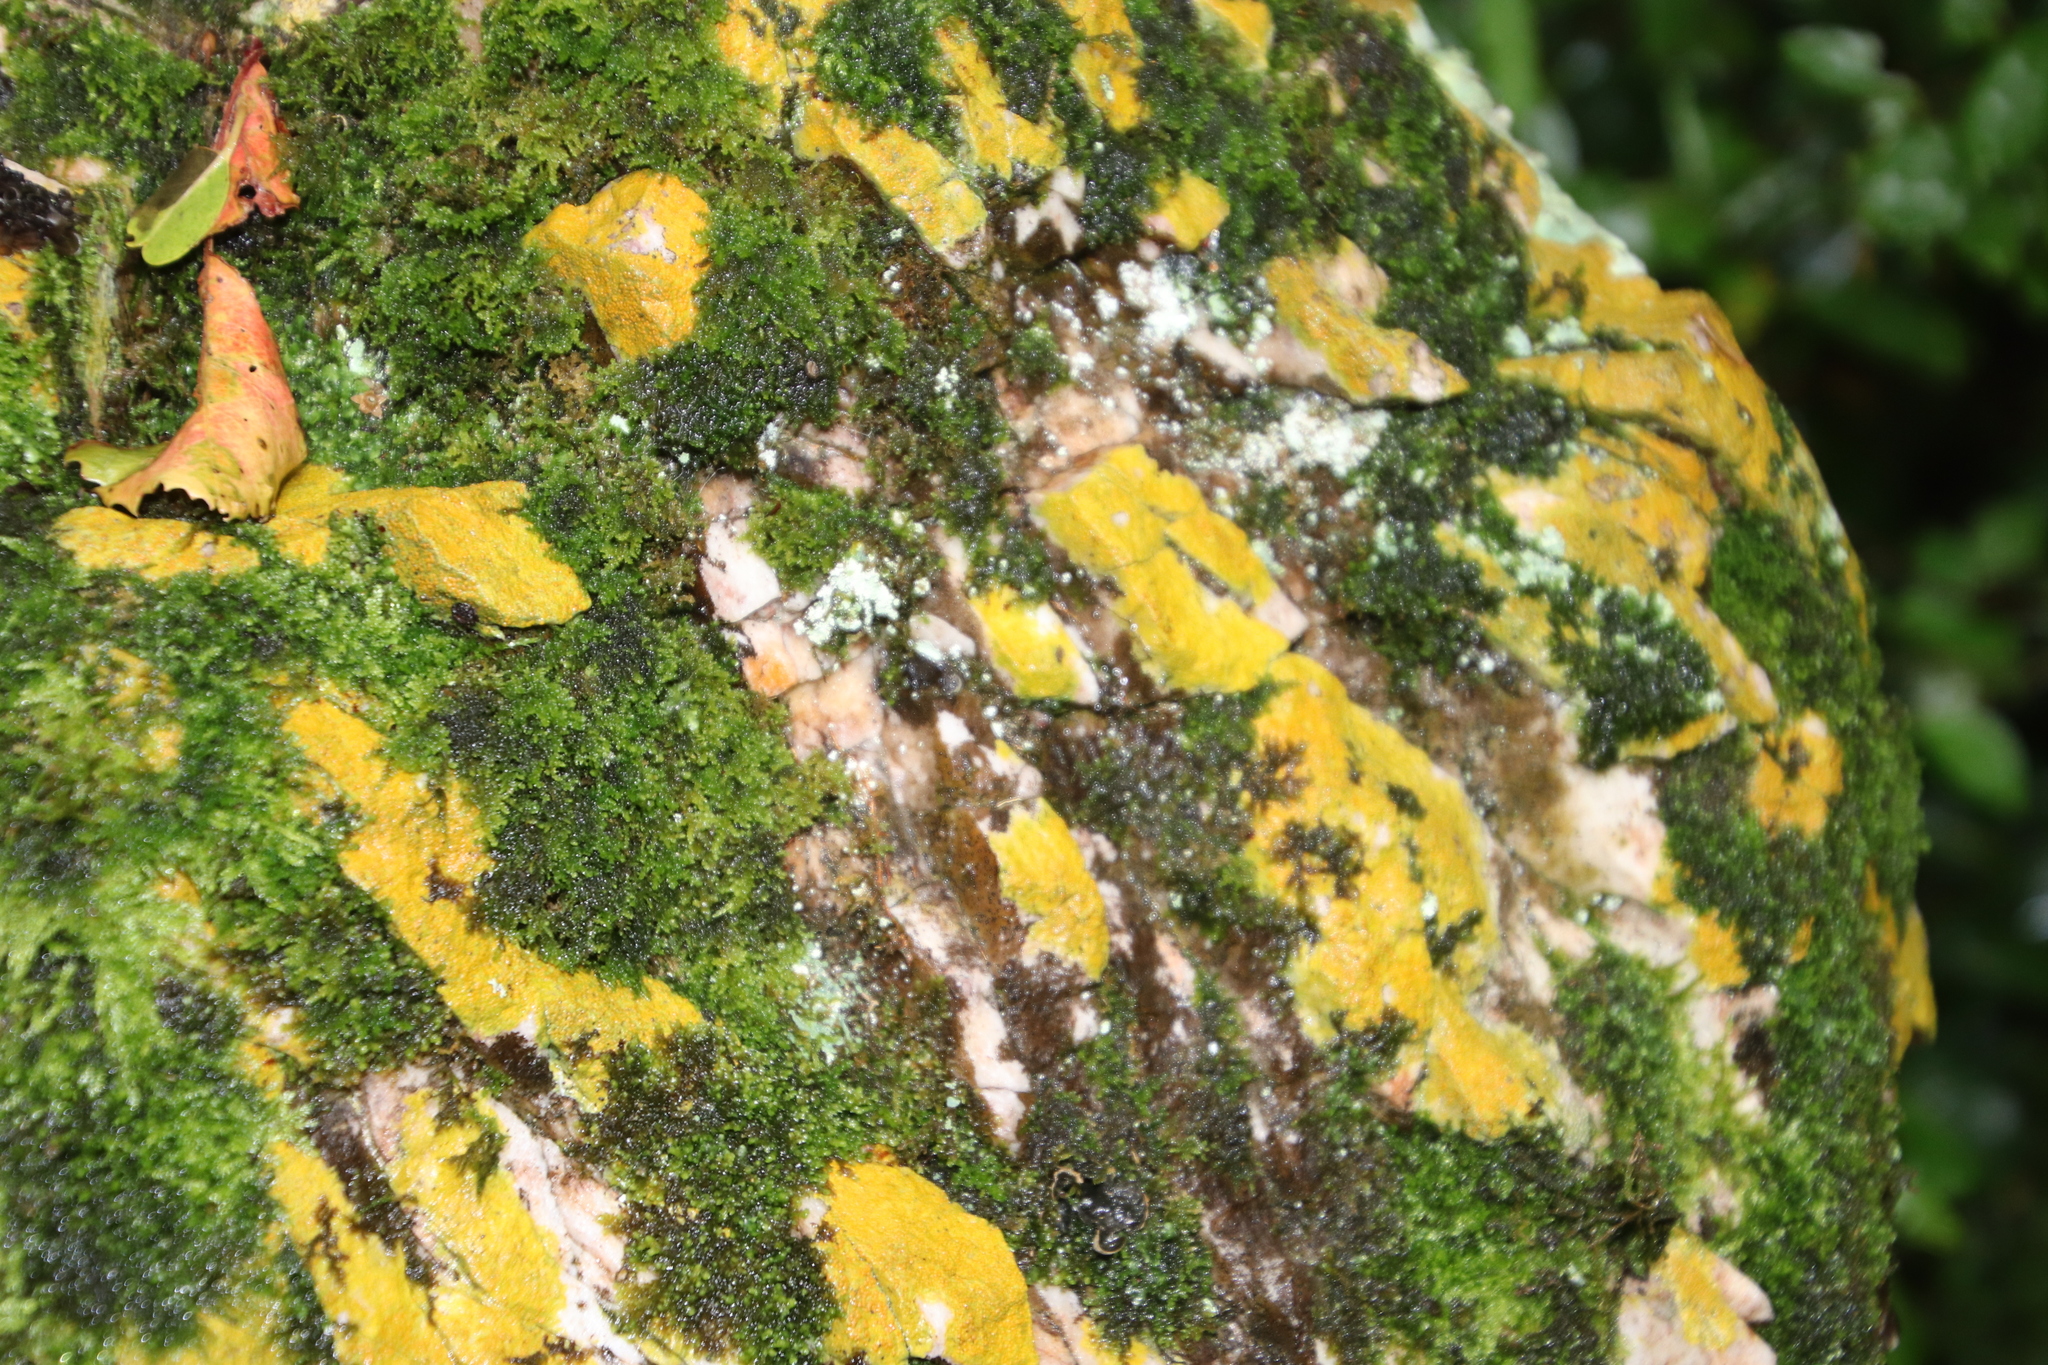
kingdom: Plantae
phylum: Bryophyta
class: Bryopsida
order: Hypnales
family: Neckeraceae
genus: Leptodon
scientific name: Leptodon smithii
